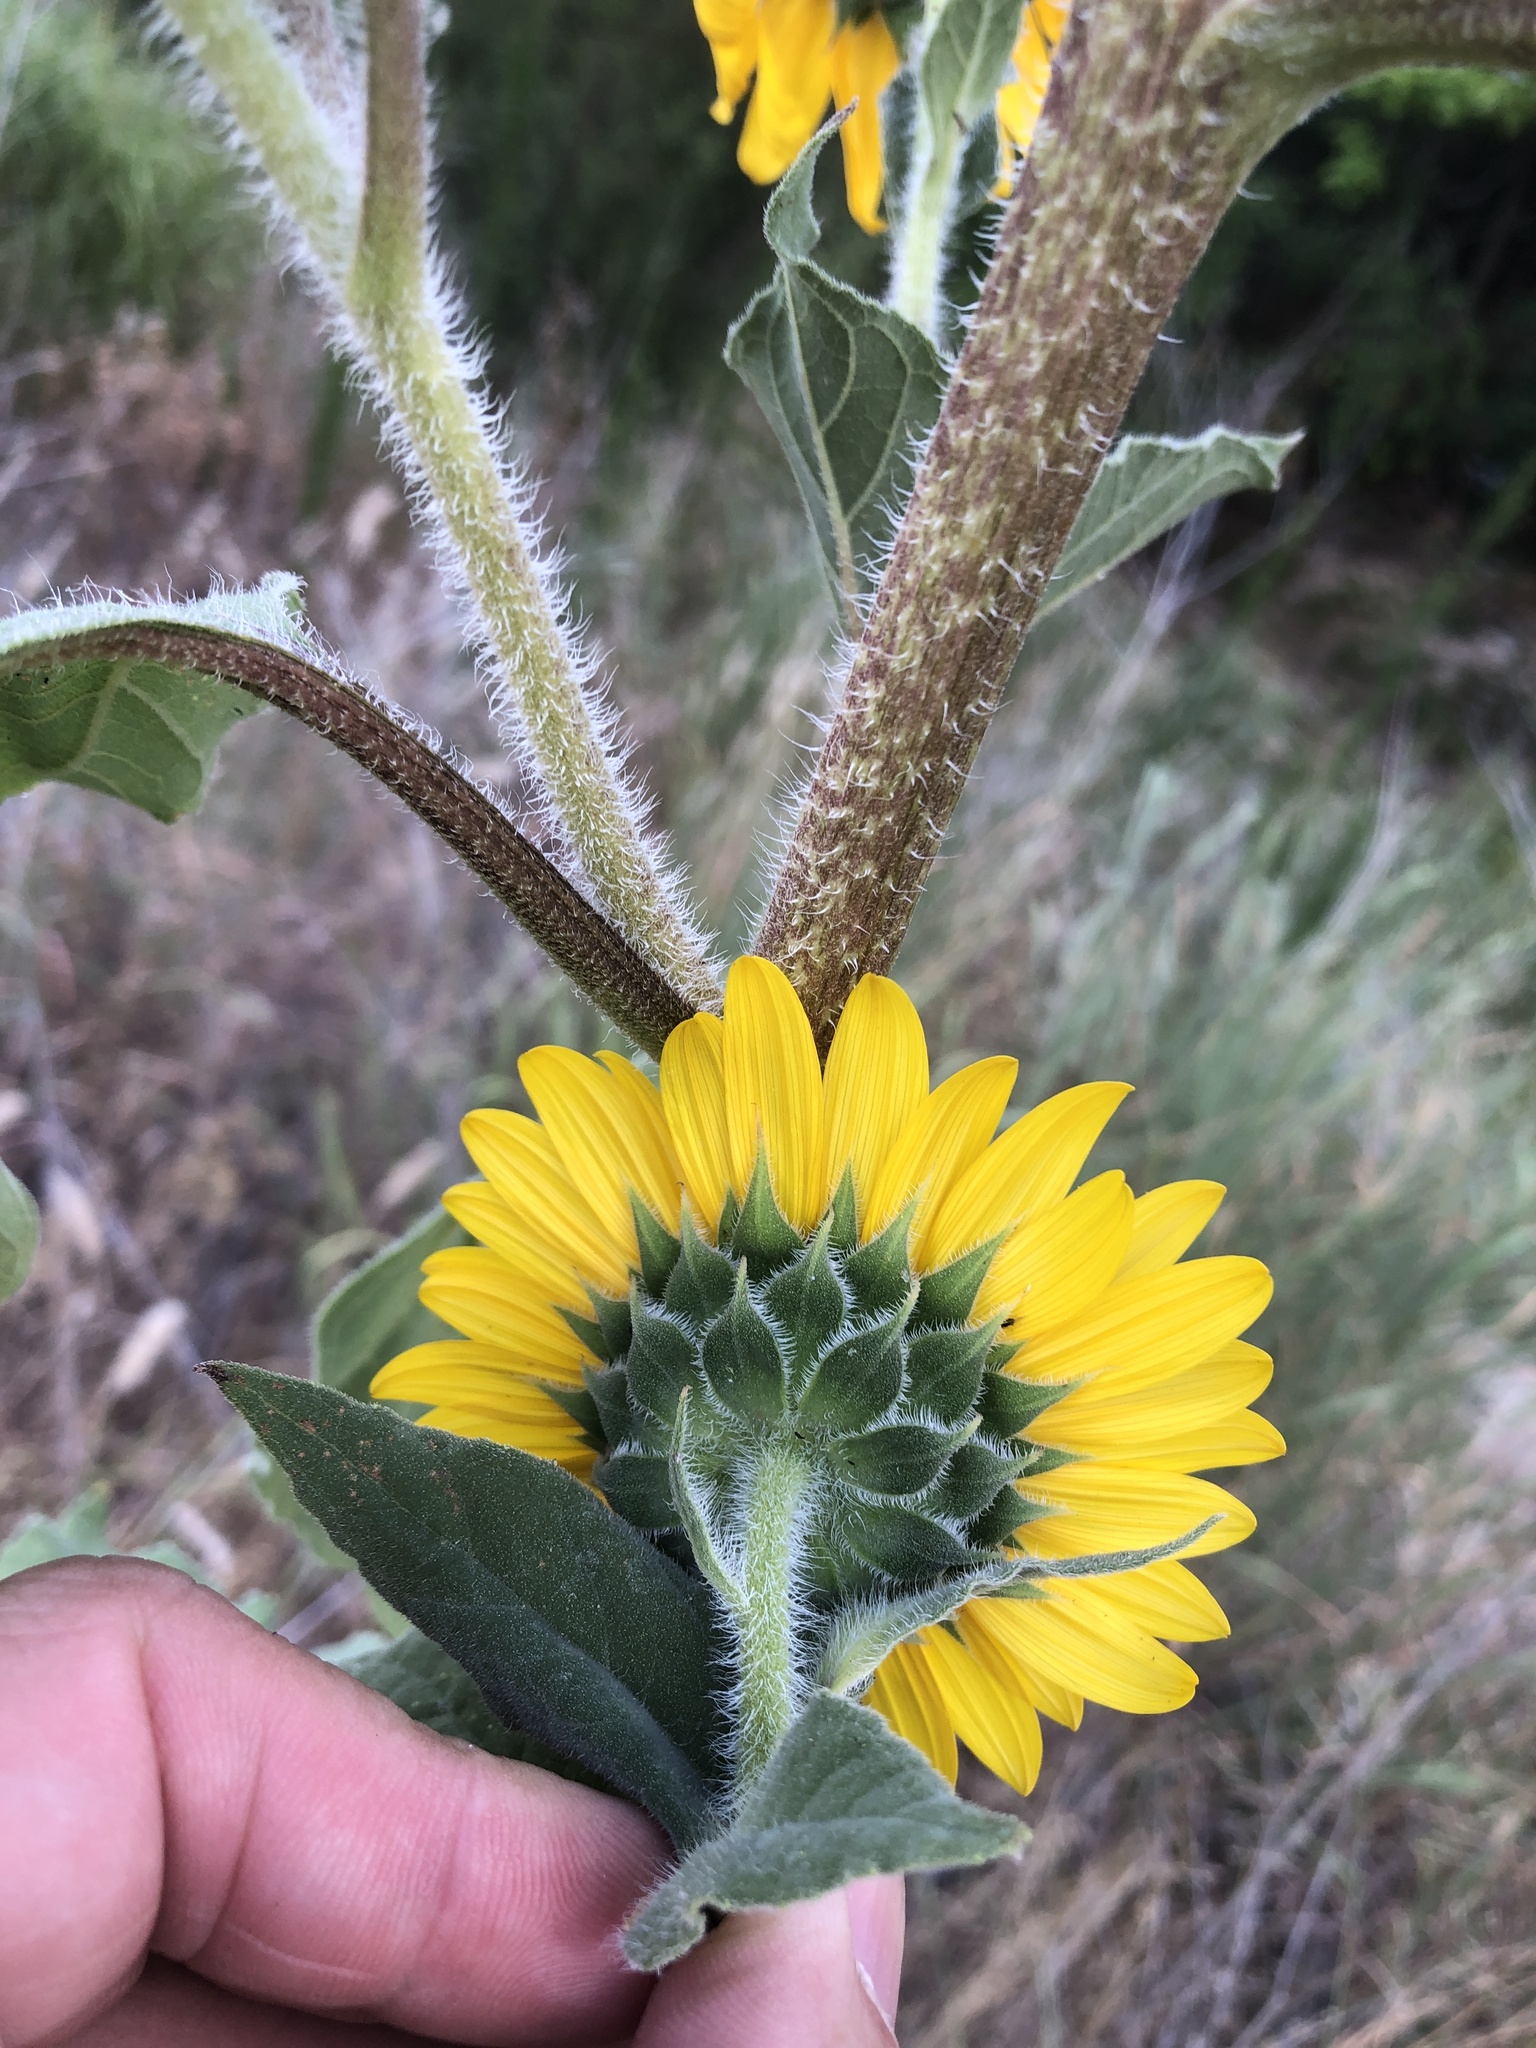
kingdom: Plantae
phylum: Tracheophyta
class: Magnoliopsida
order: Asterales
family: Asteraceae
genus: Helianthus
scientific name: Helianthus annuus
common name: Sunflower
